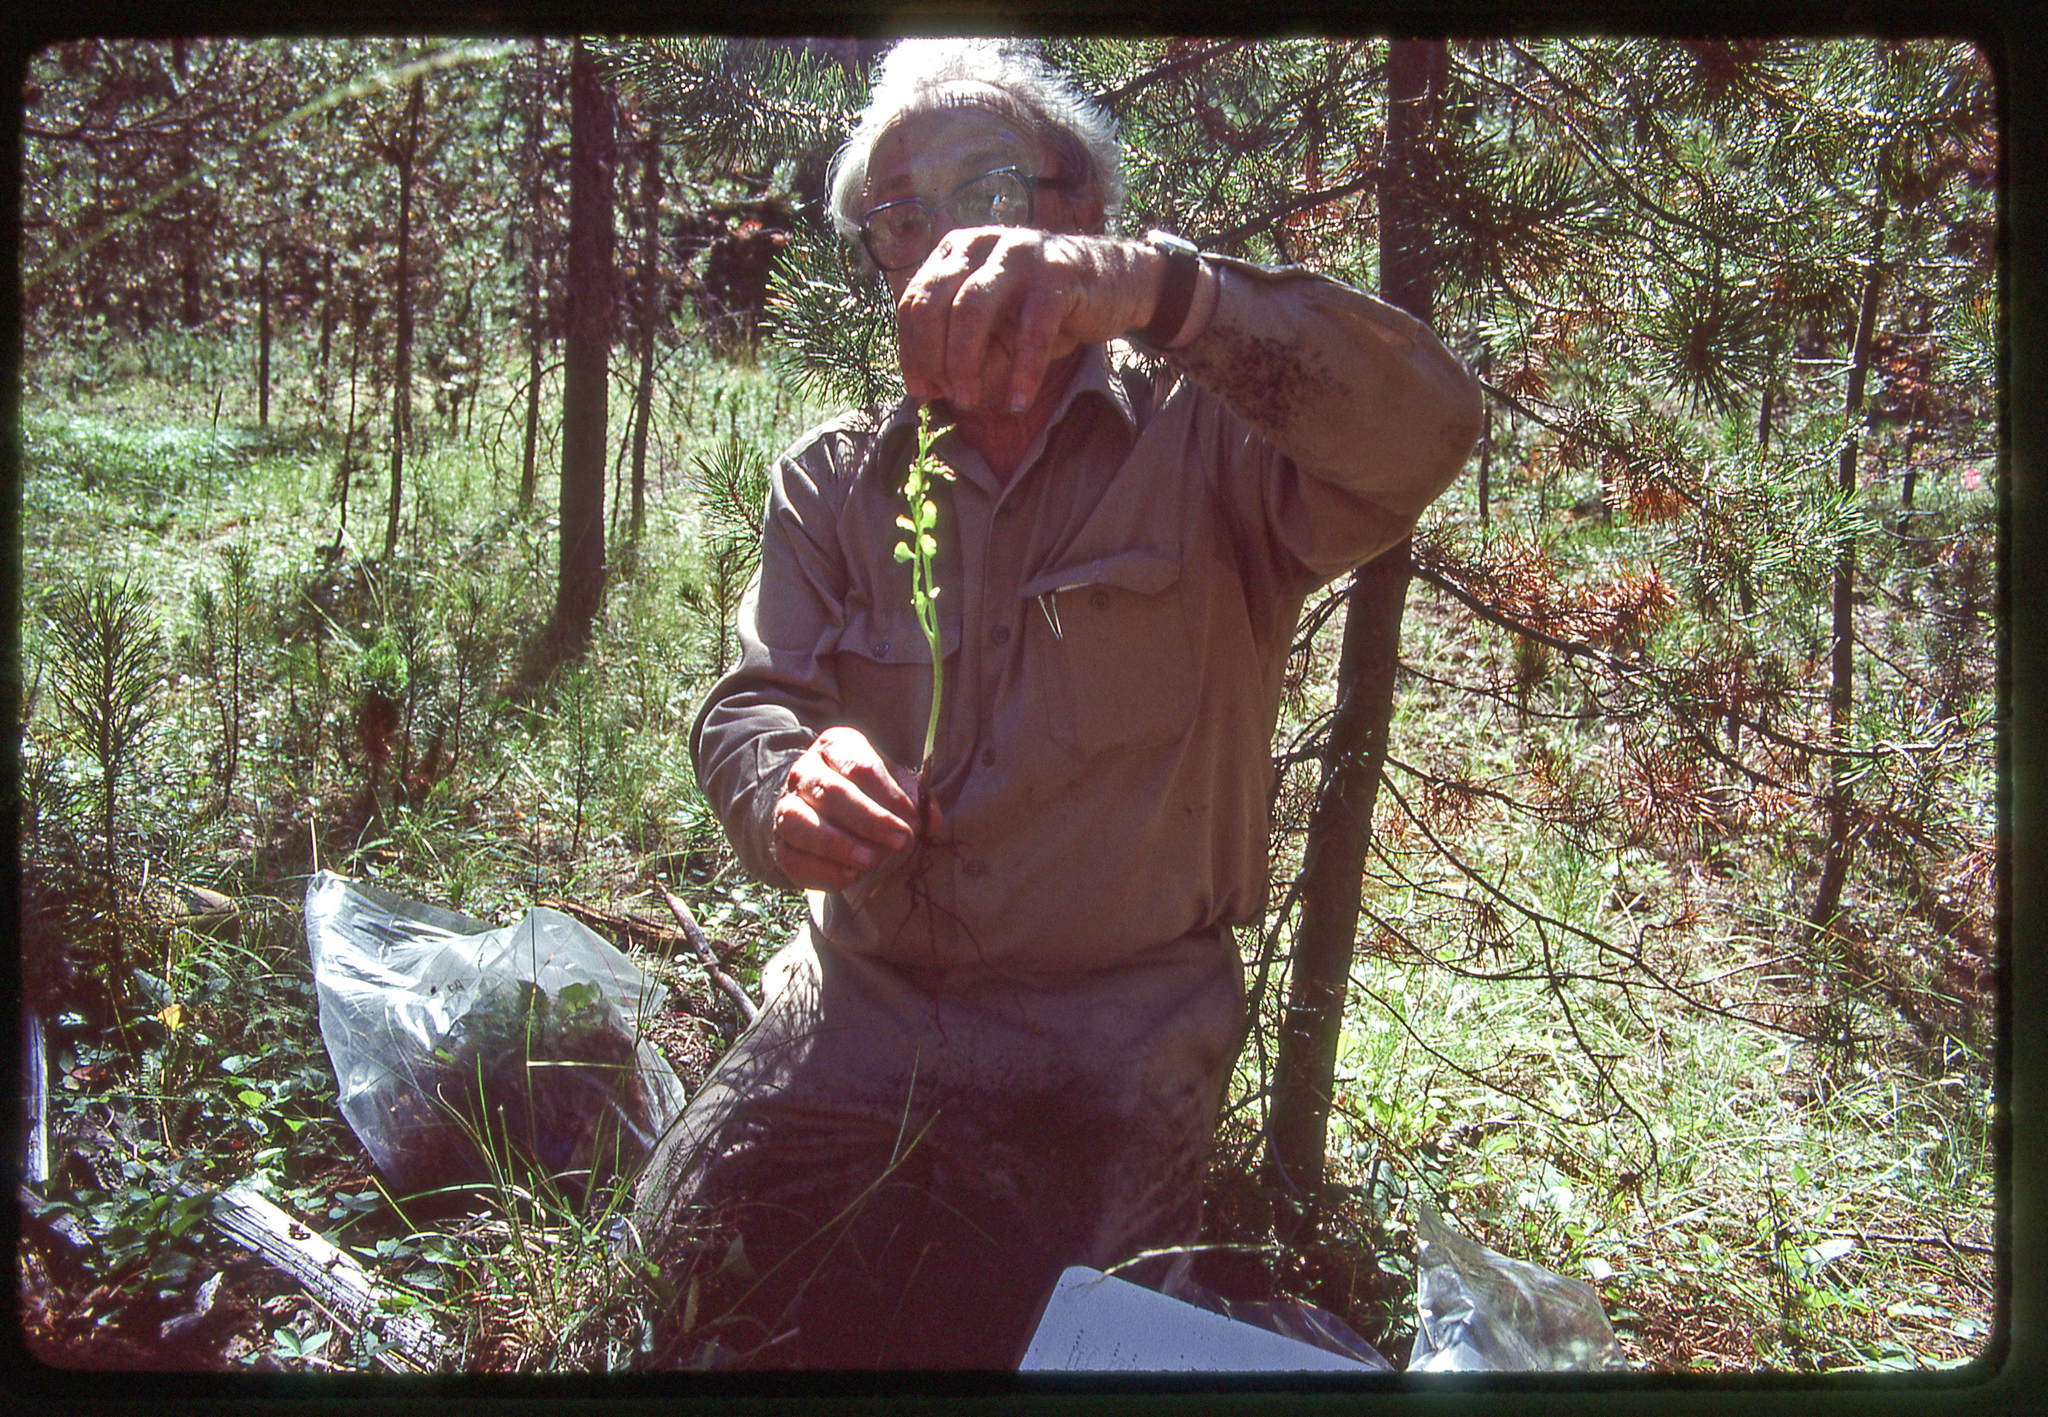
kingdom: Plantae
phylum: Tracheophyta
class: Polypodiopsida
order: Ophioglossales
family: Ophioglossaceae
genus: Botrychium
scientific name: Botrychium minganense
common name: Mingan grapefern
